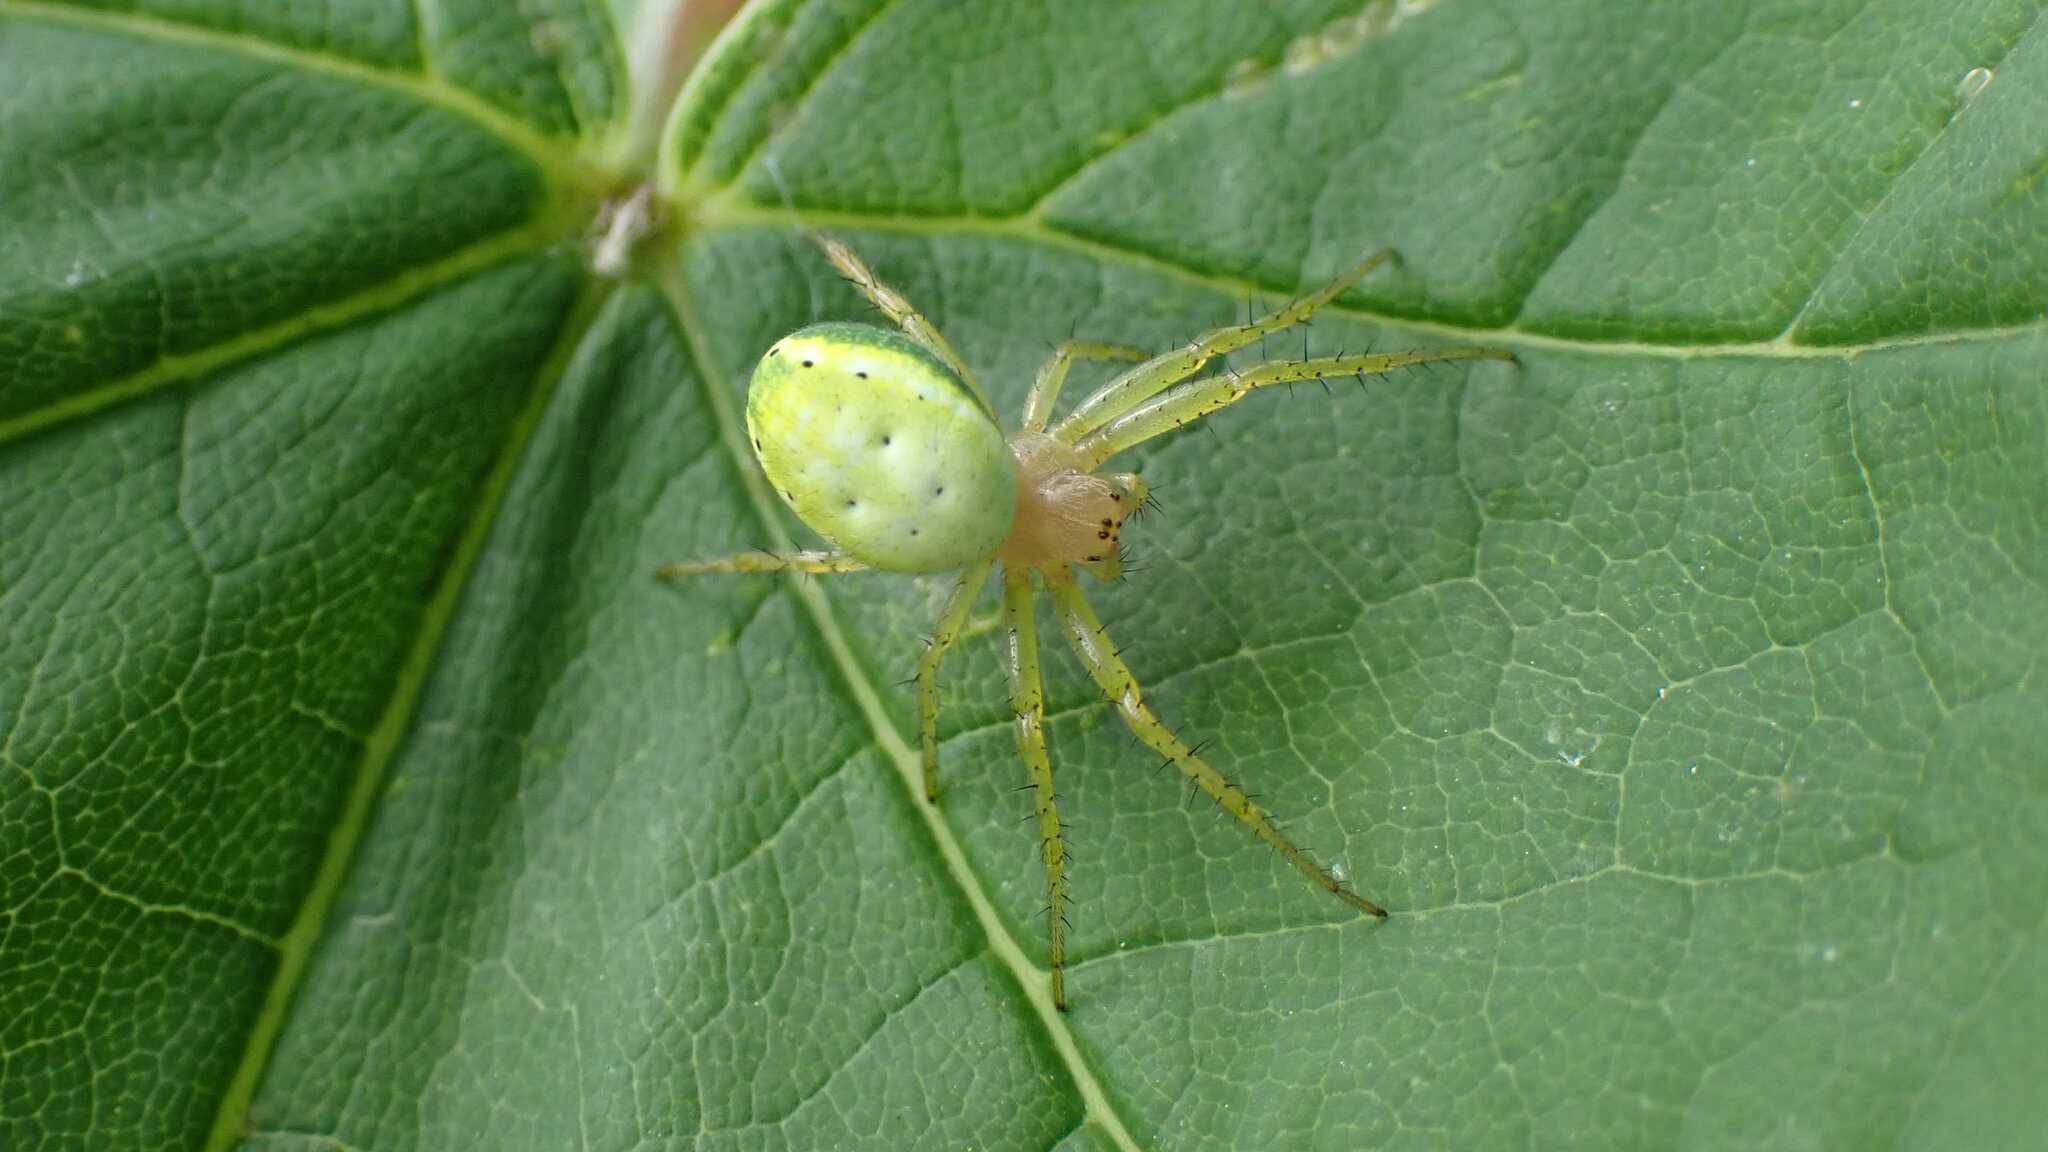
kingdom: Animalia
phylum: Arthropoda
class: Arachnida
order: Araneae
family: Araneidae
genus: Araniella
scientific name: Araniella
